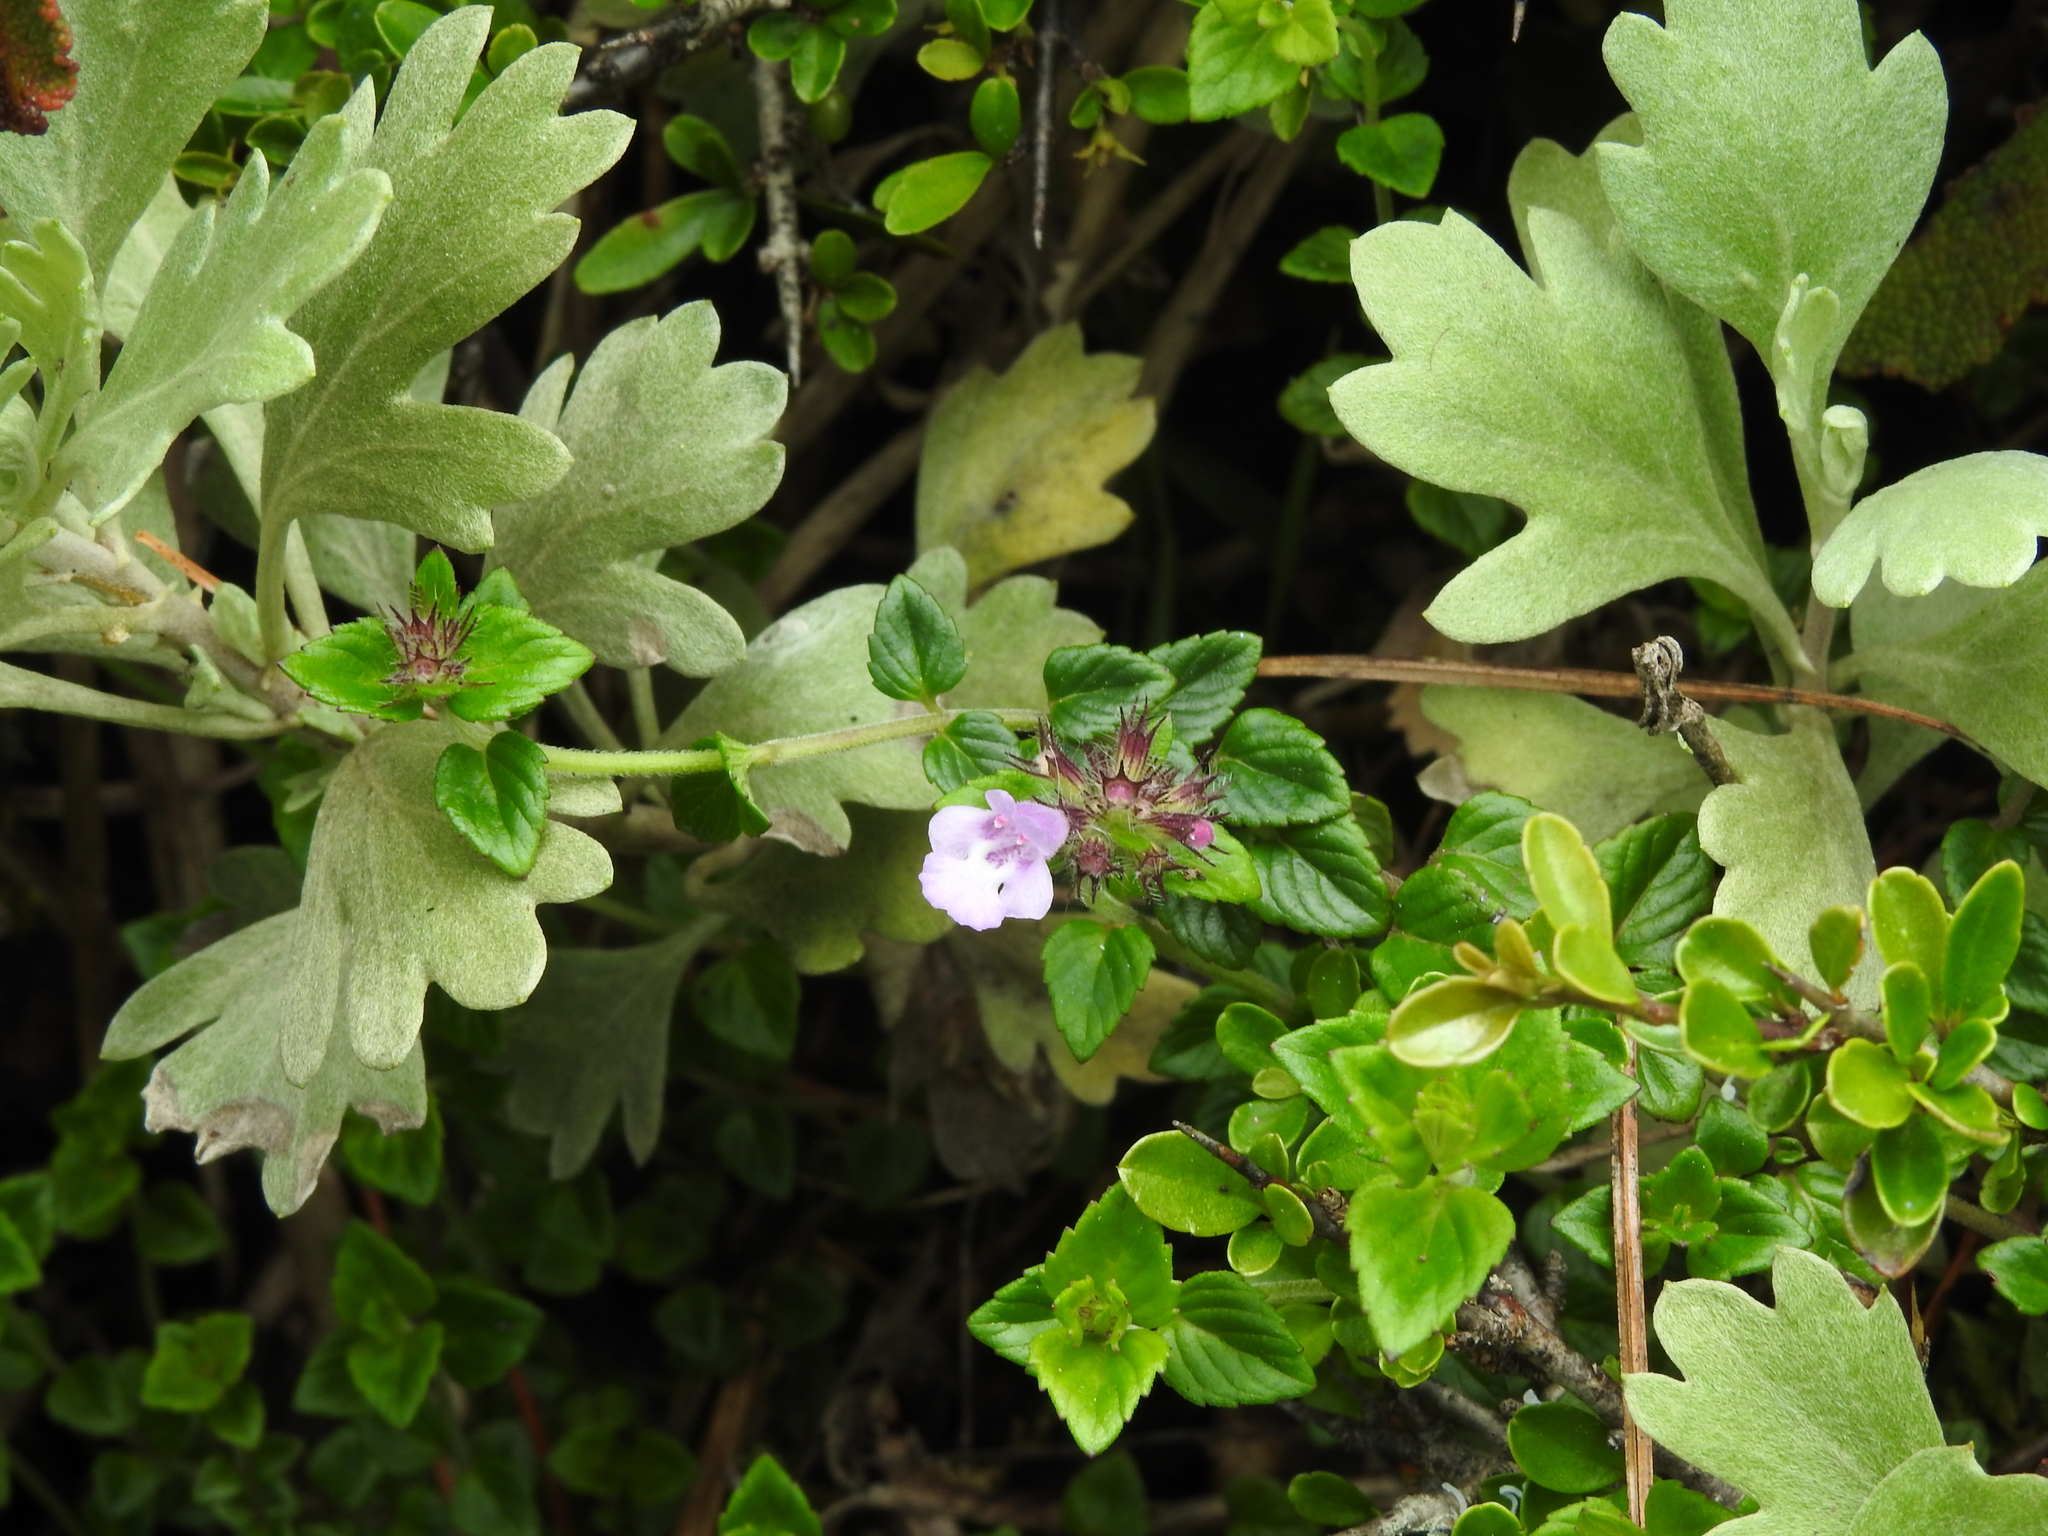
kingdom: Plantae
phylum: Tracheophyta
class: Magnoliopsida
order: Lamiales
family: Lamiaceae
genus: Clinopodium
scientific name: Clinopodium laxiflorum
